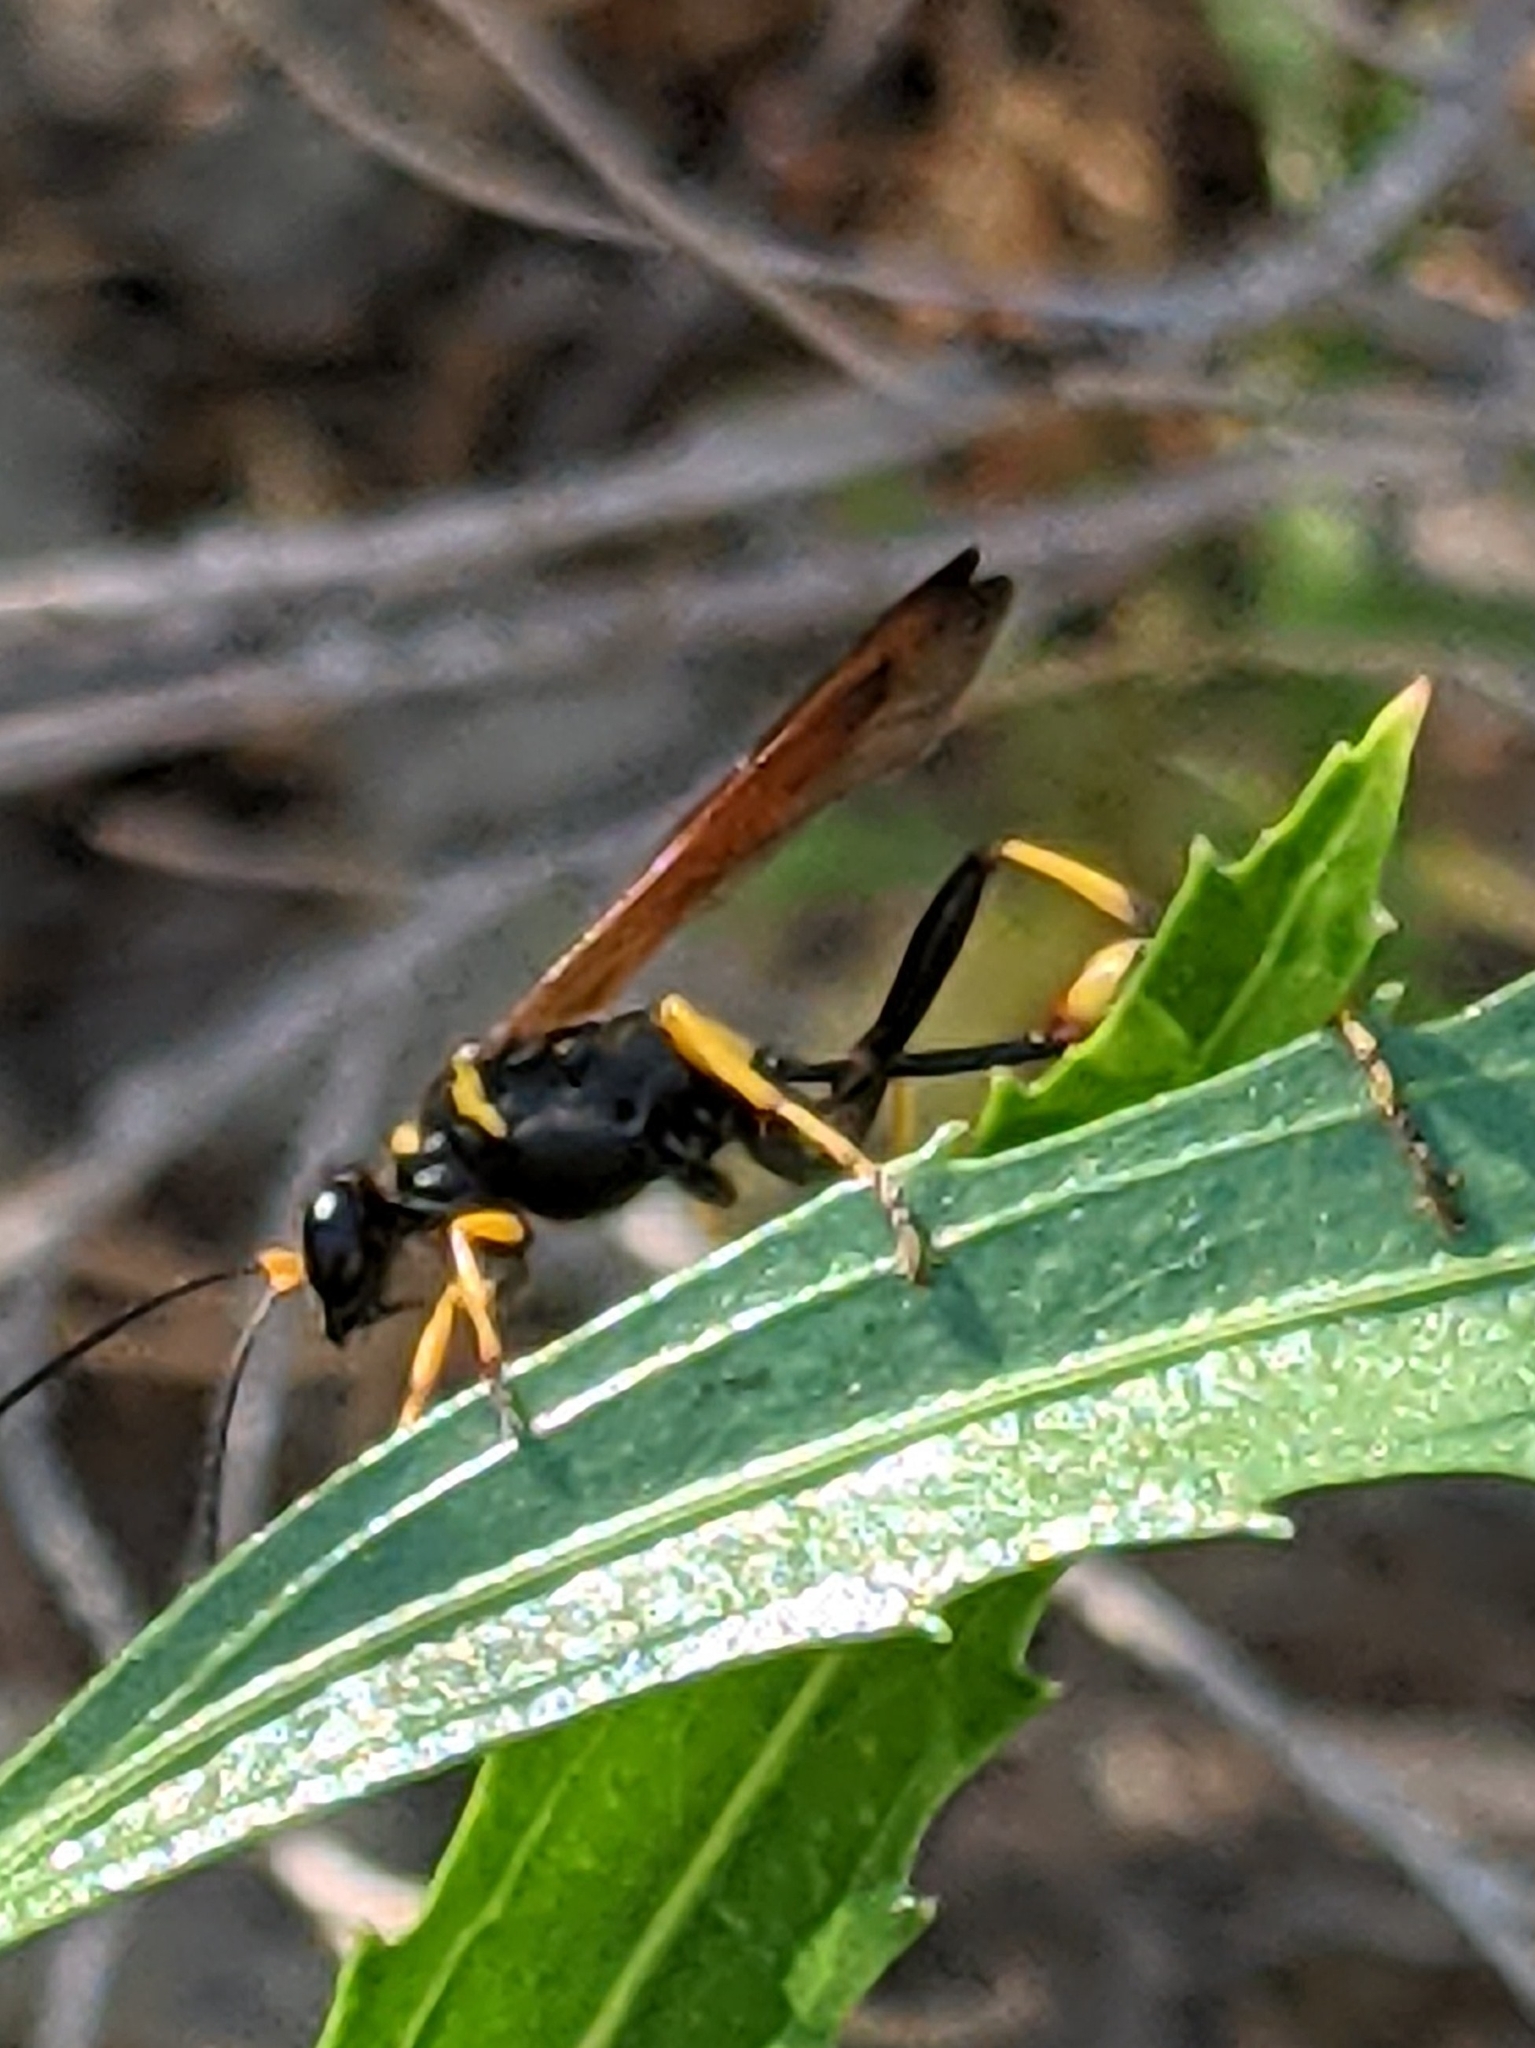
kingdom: Animalia
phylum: Arthropoda
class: Insecta
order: Hymenoptera
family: Sphecidae
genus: Sceliphron
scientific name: Sceliphron caementarium
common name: Mud dauber
